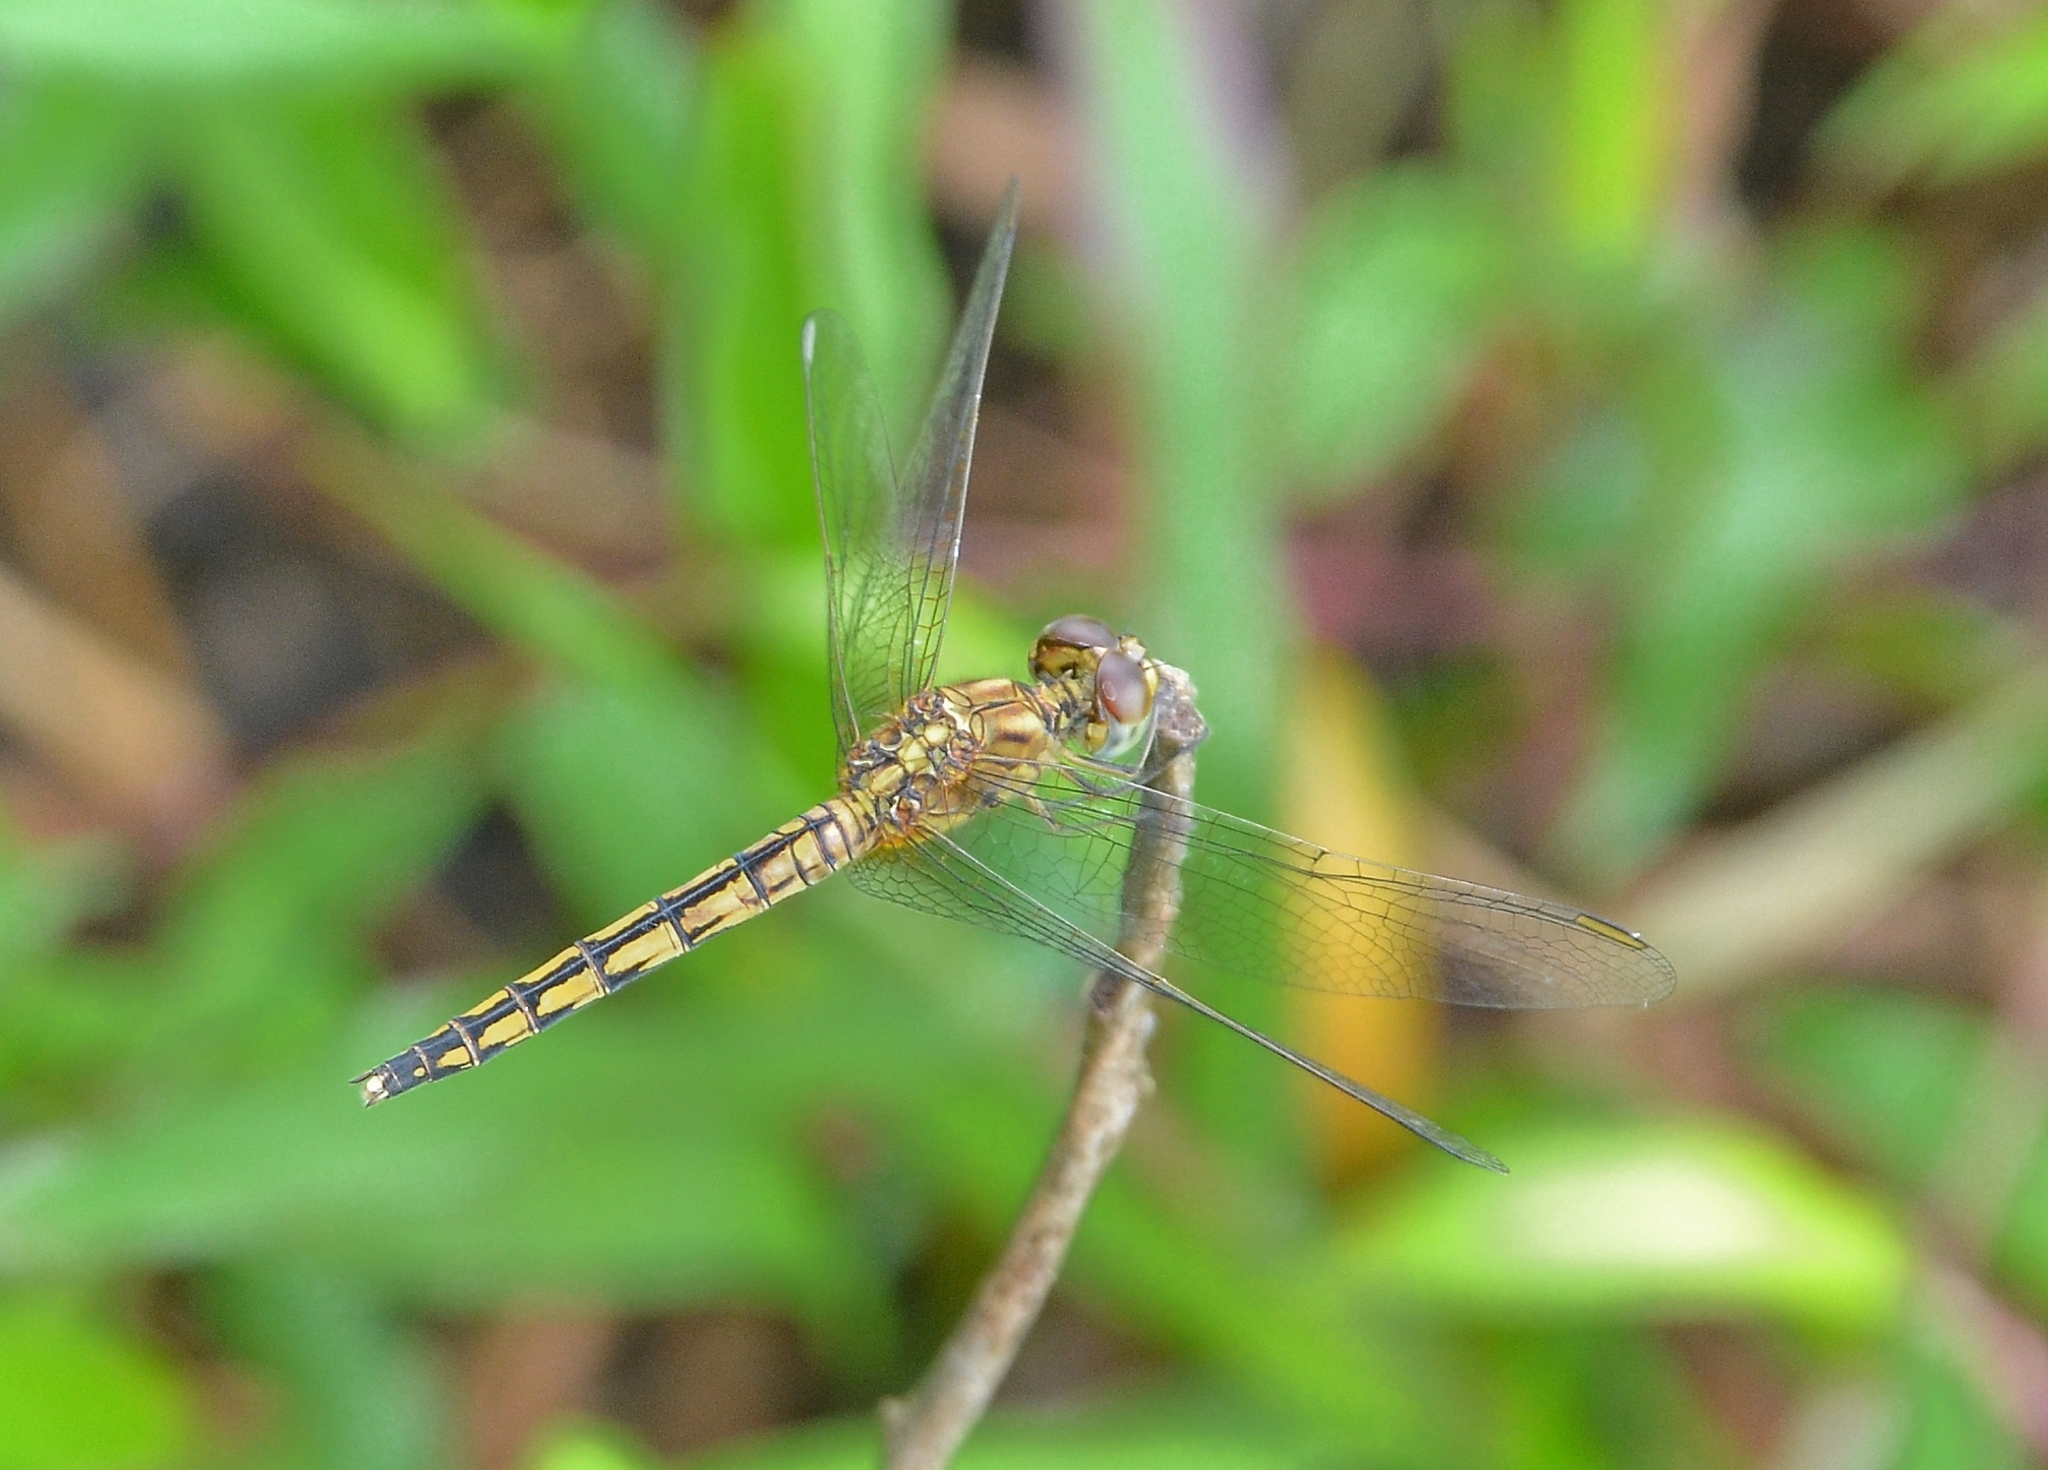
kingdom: Animalia
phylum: Arthropoda
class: Insecta
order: Odonata
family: Libellulidae
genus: Indothemis
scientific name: Indothemis carnatica
